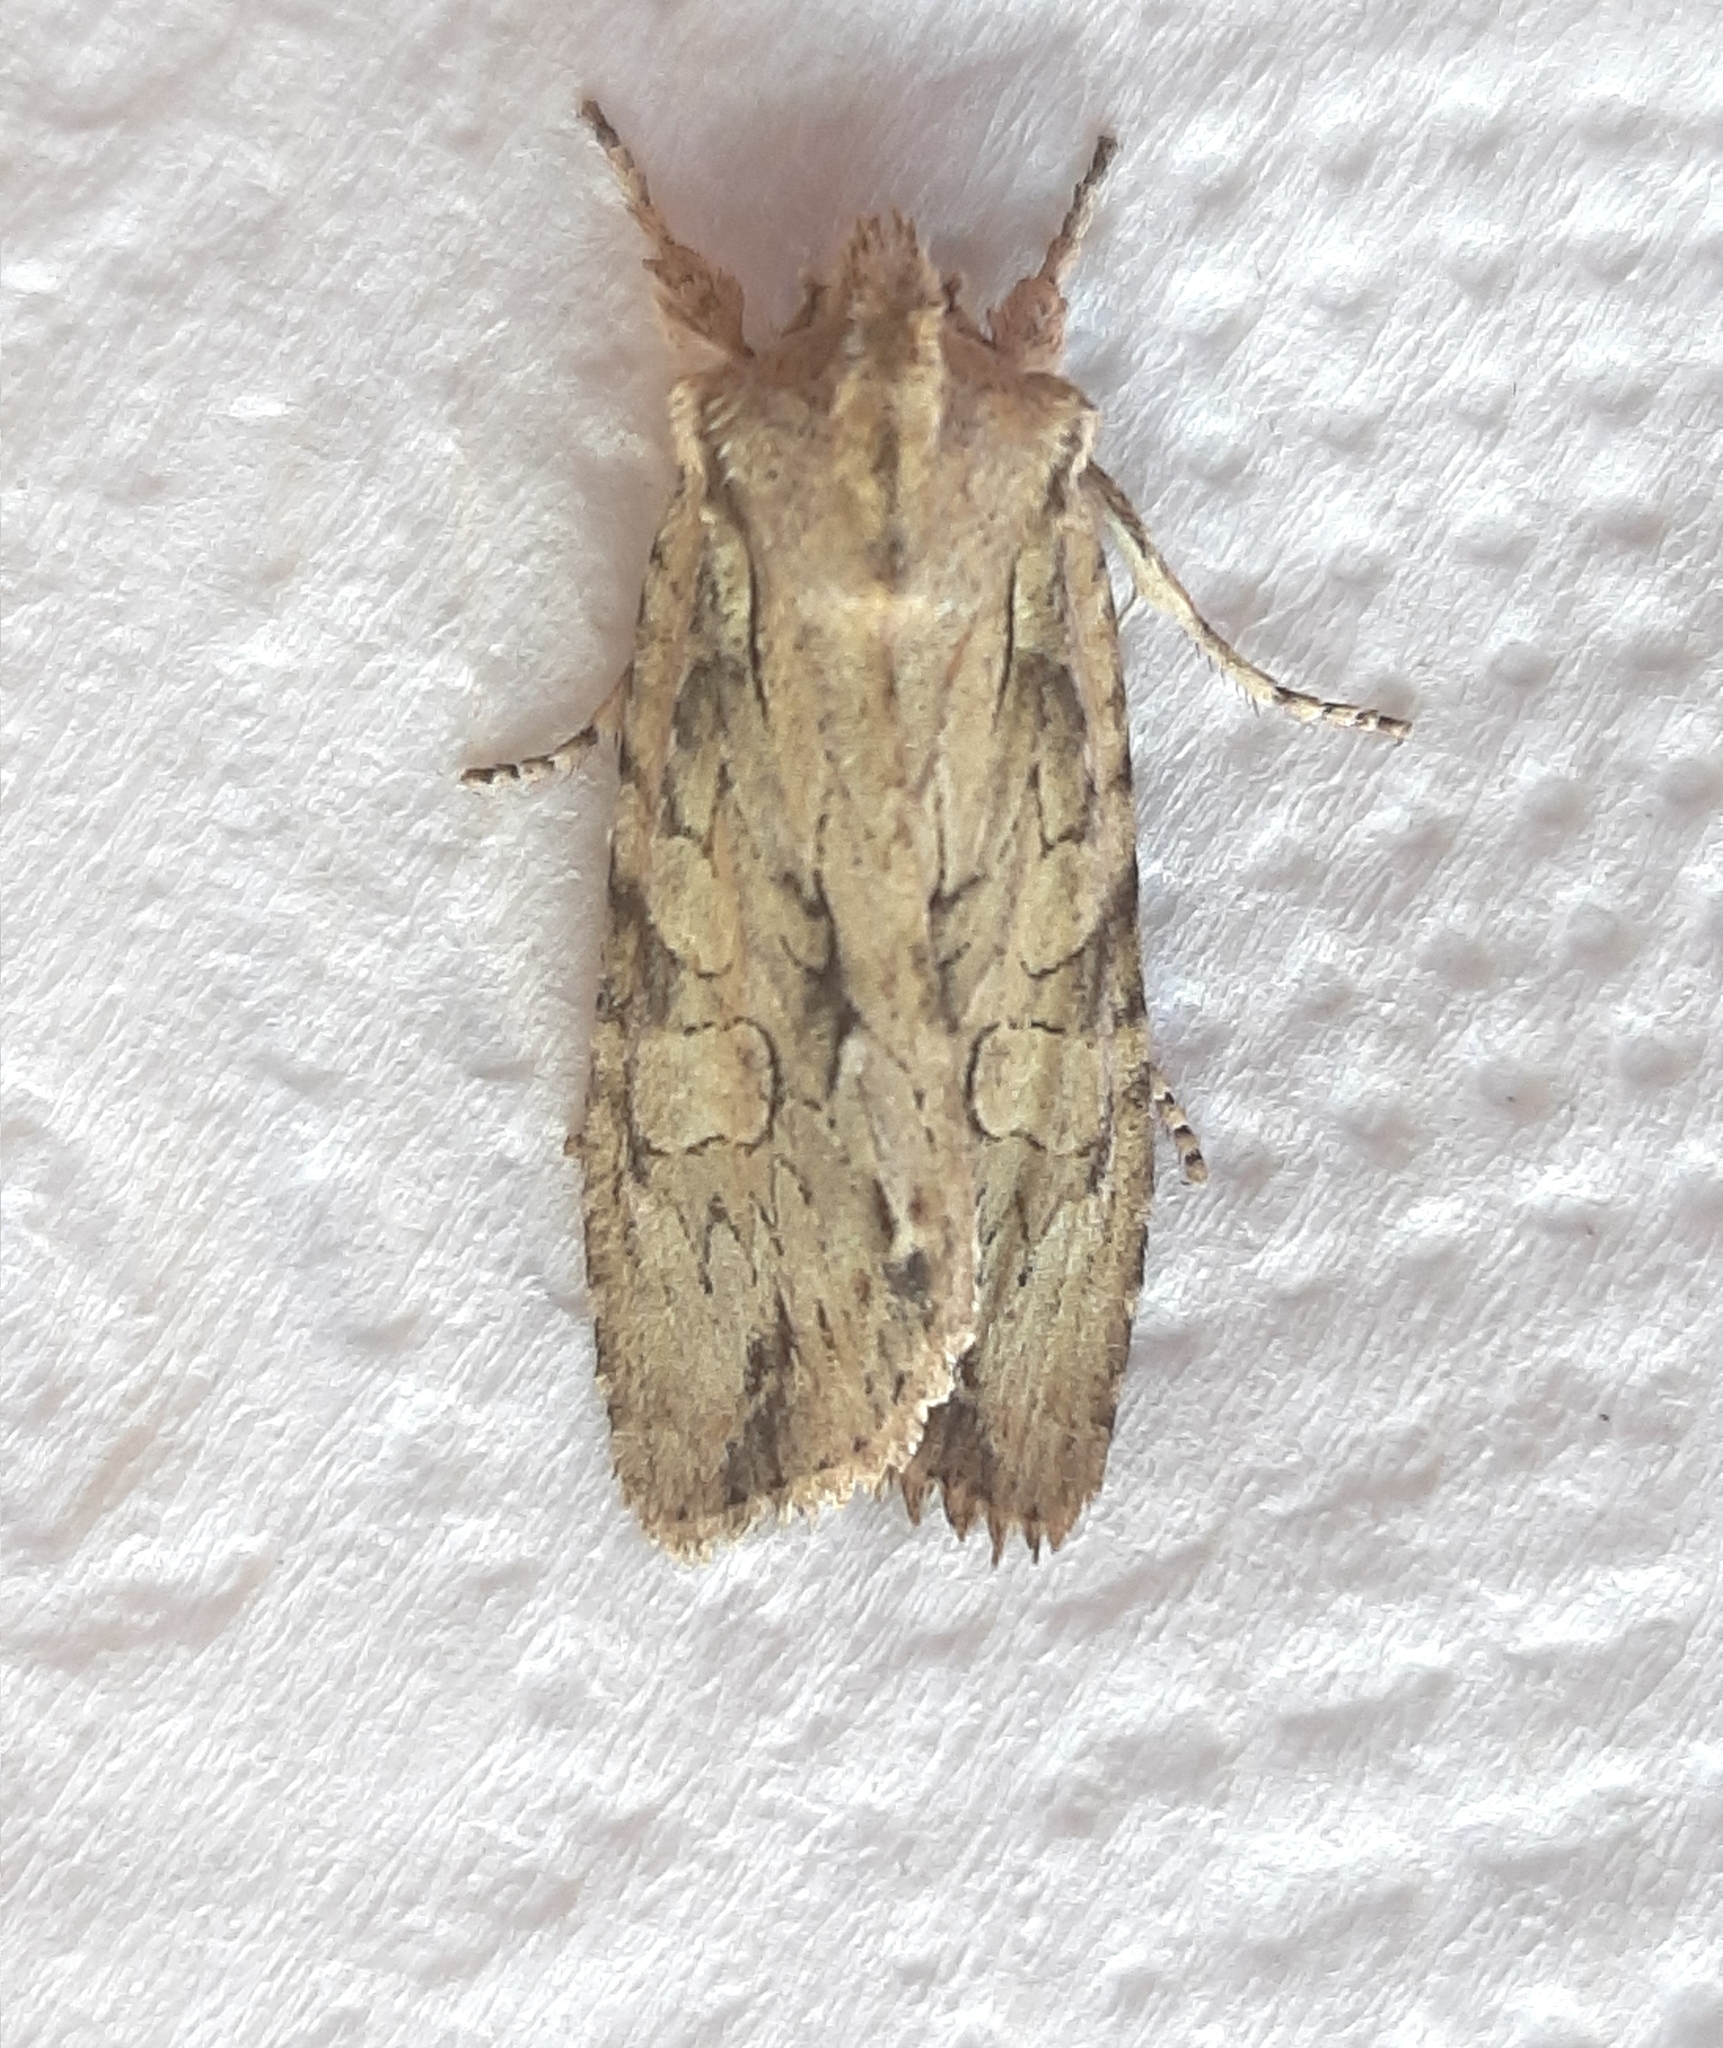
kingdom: Animalia
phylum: Arthropoda
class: Insecta
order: Lepidoptera
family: Noctuidae
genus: Lithophane
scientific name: Lithophane disposita
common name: Dashed gray pinion moth
